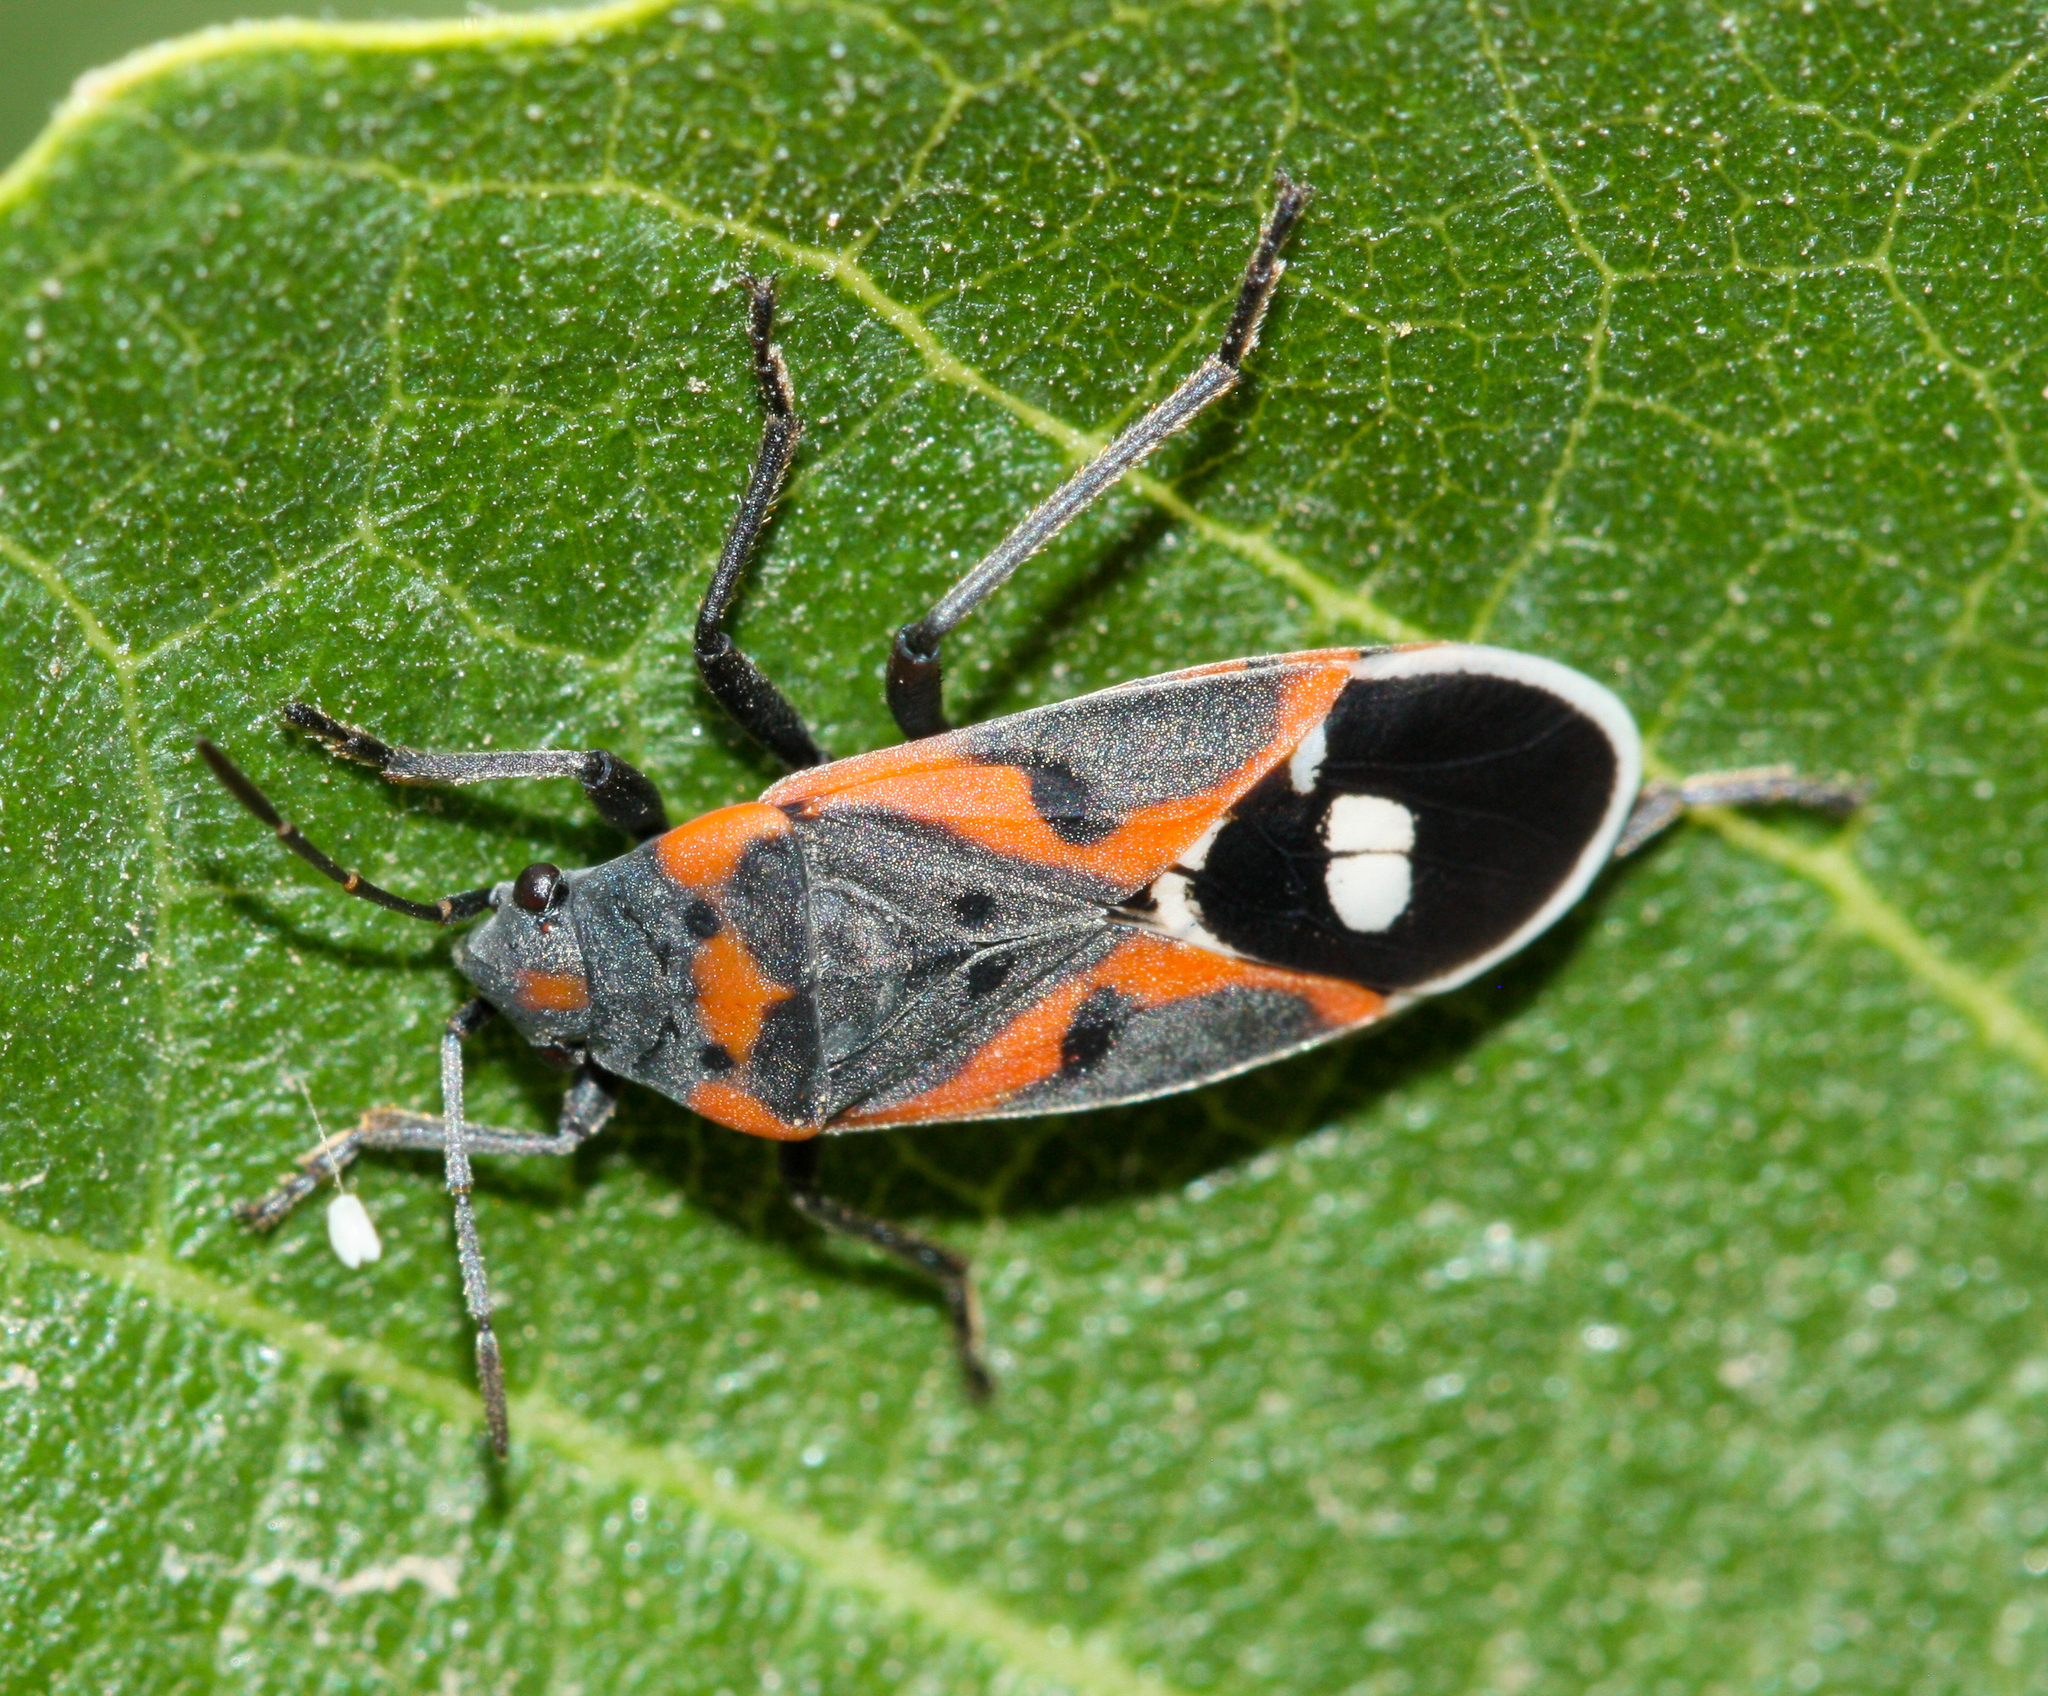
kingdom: Animalia
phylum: Arthropoda
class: Insecta
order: Hemiptera
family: Lygaeidae
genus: Lygaeus
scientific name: Lygaeus kalmii
